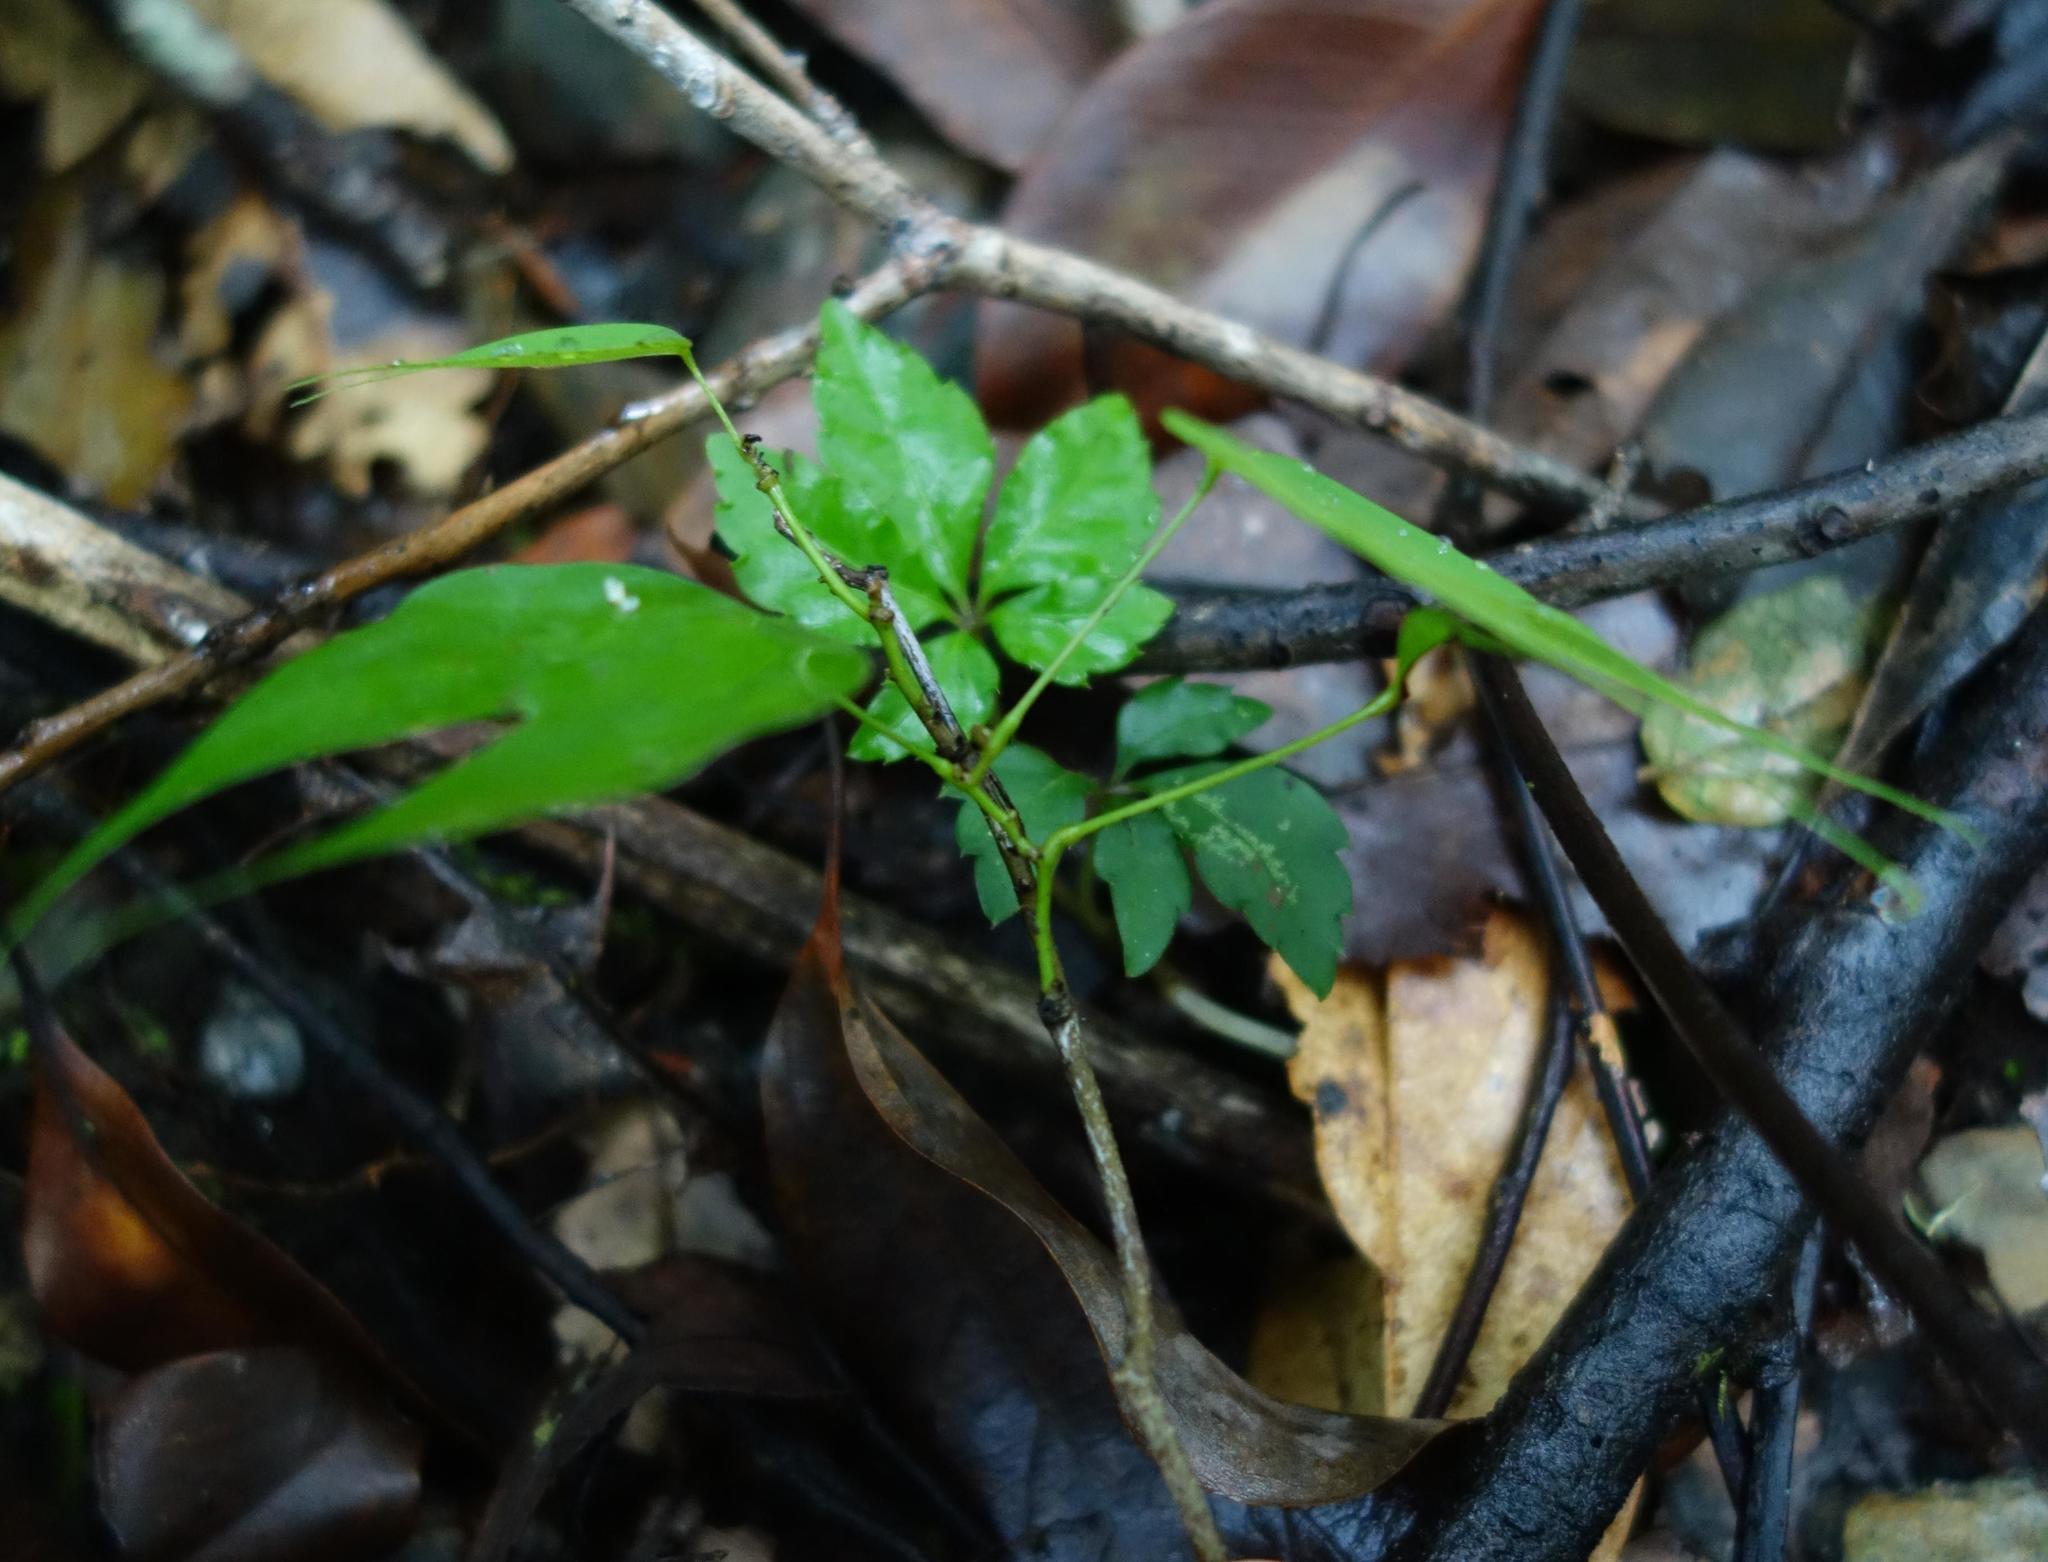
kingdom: Plantae
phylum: Tracheophyta
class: Magnoliopsida
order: Fabales
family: Fabaceae
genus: Phanera
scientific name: Phanera championii
